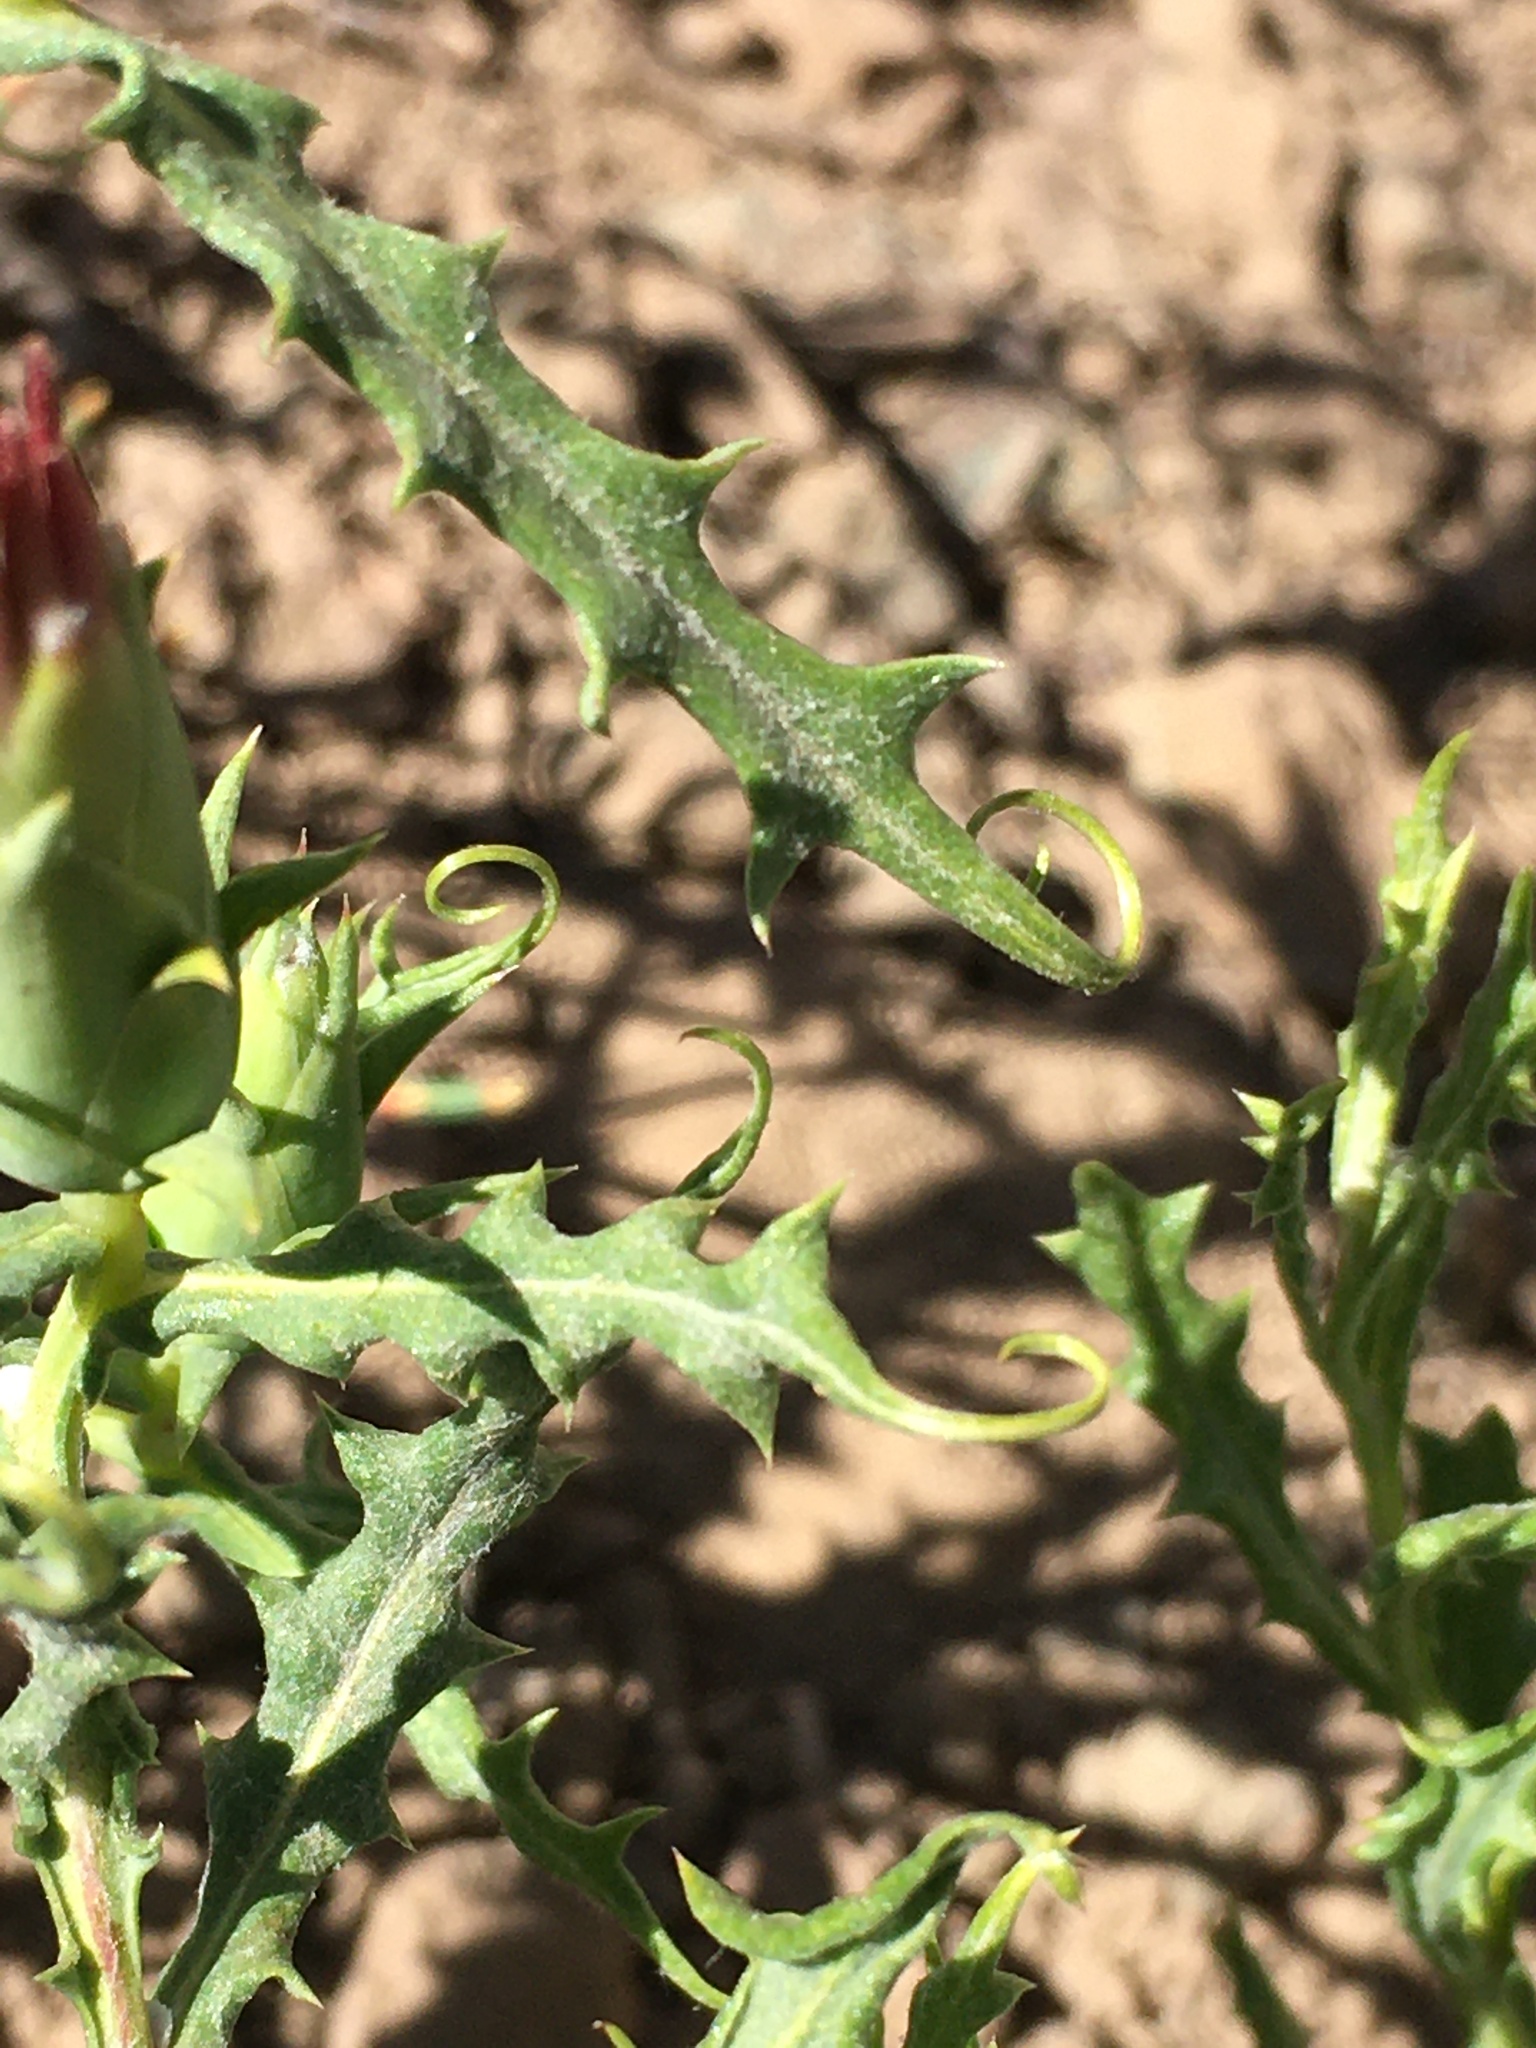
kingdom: Plantae
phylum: Tracheophyta
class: Magnoliopsida
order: Asterales
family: Asteraceae
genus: Mutisia
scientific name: Mutisia sinuata
